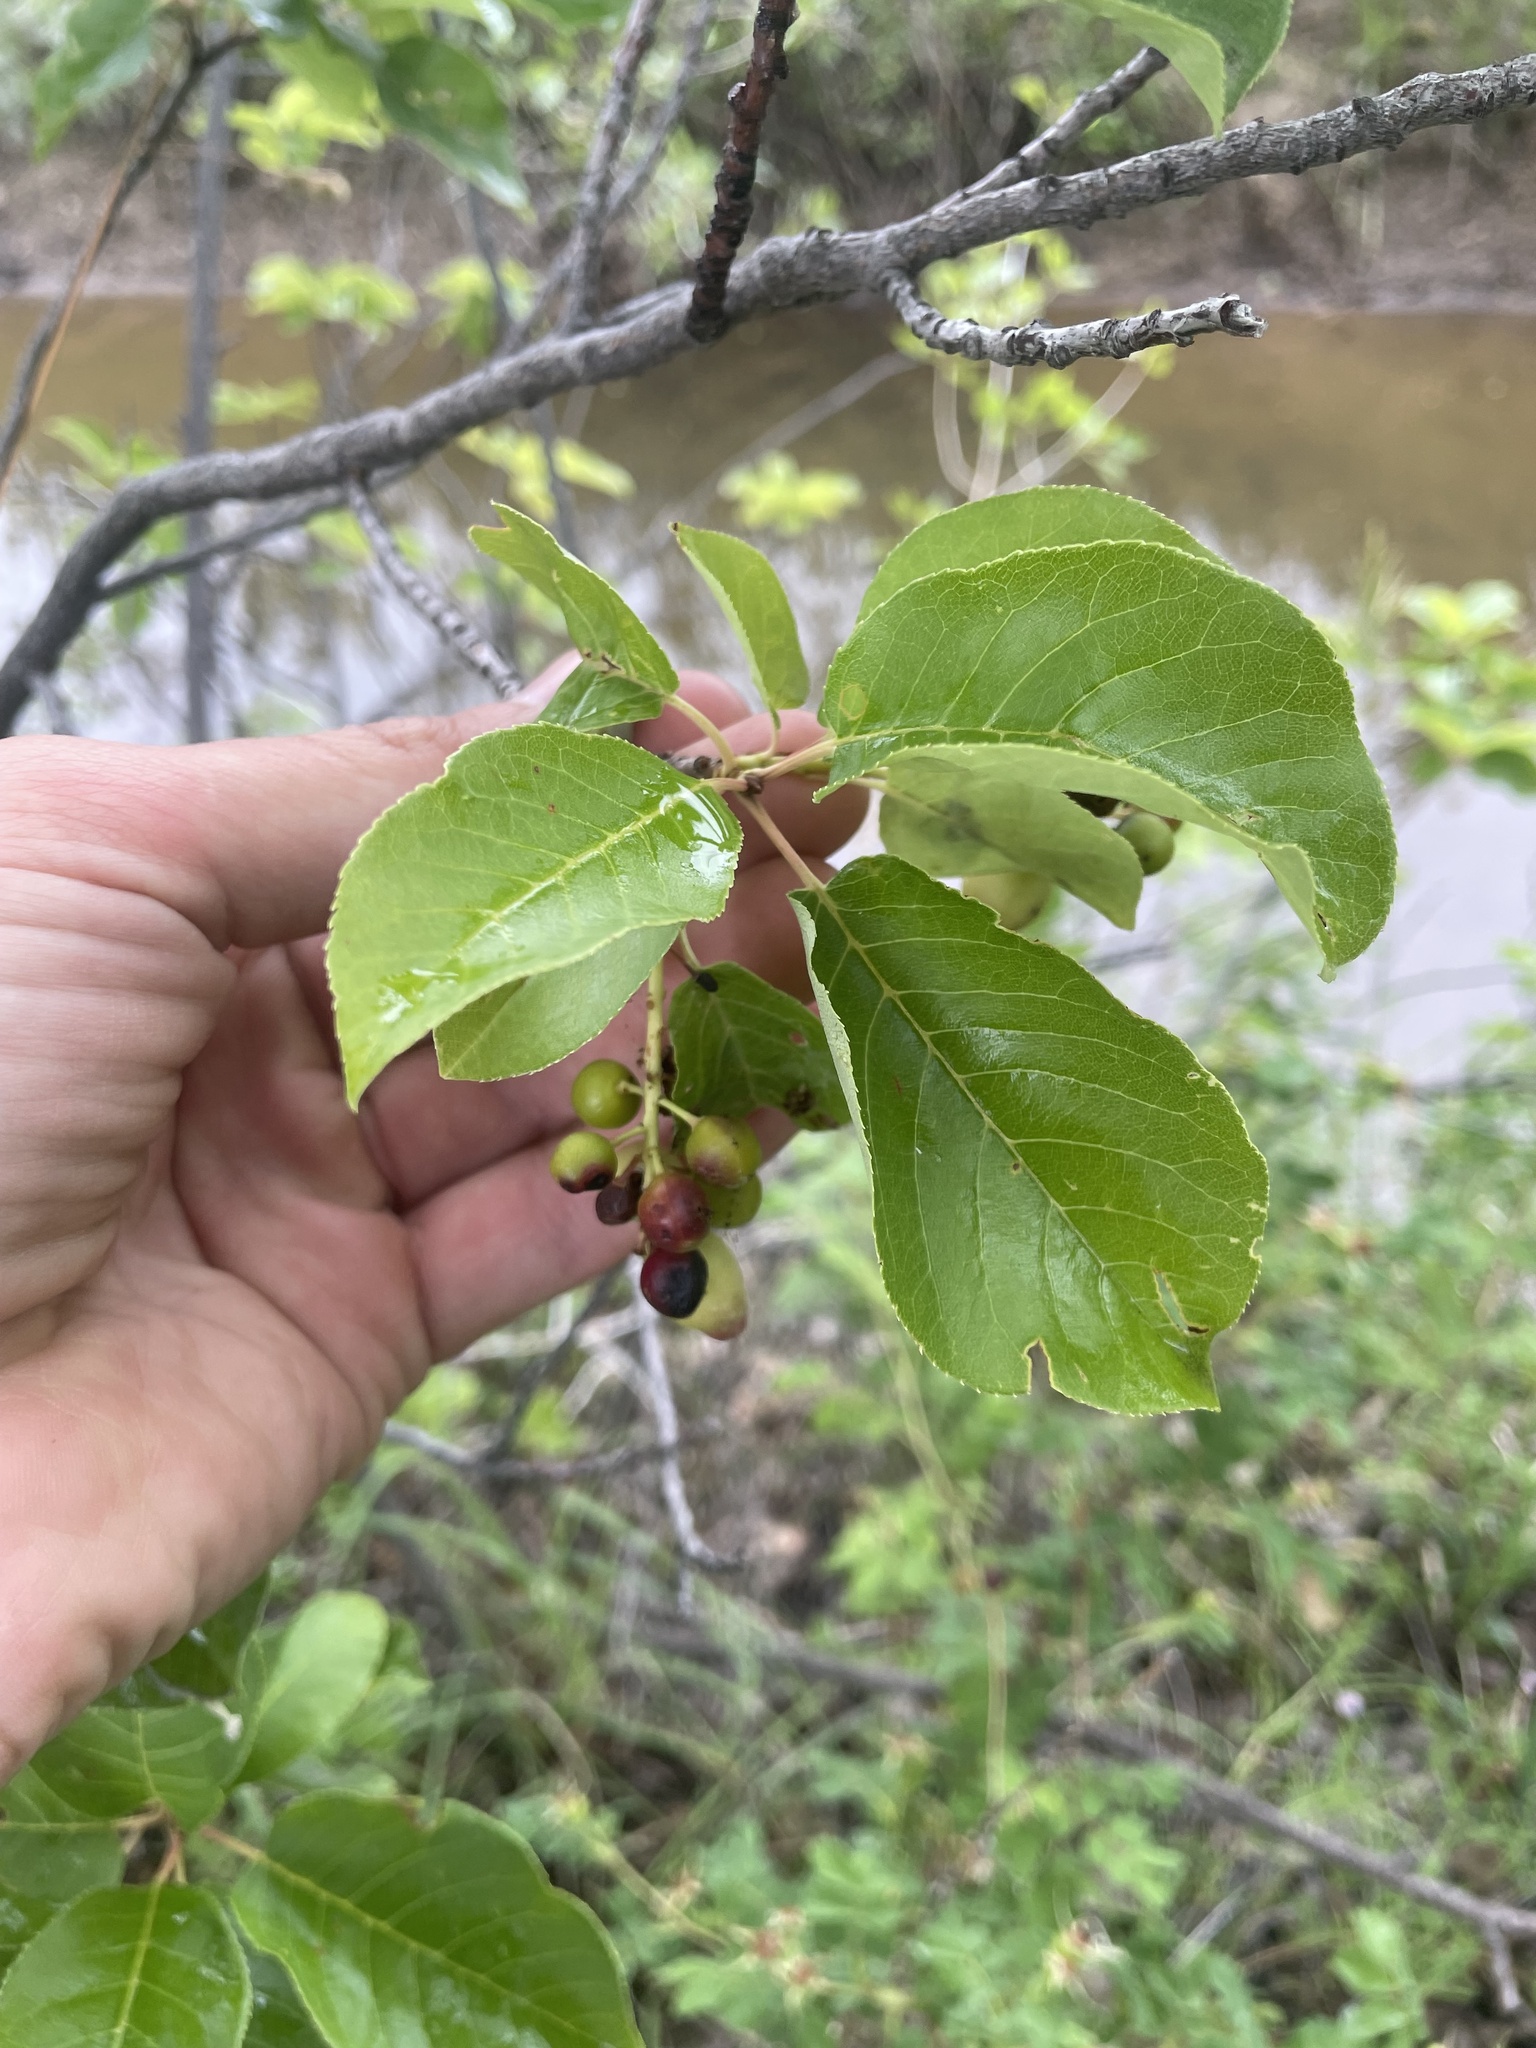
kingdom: Plantae
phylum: Tracheophyta
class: Magnoliopsida
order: Rosales
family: Rosaceae
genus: Prunus
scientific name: Prunus virginiana
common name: Chokecherry
